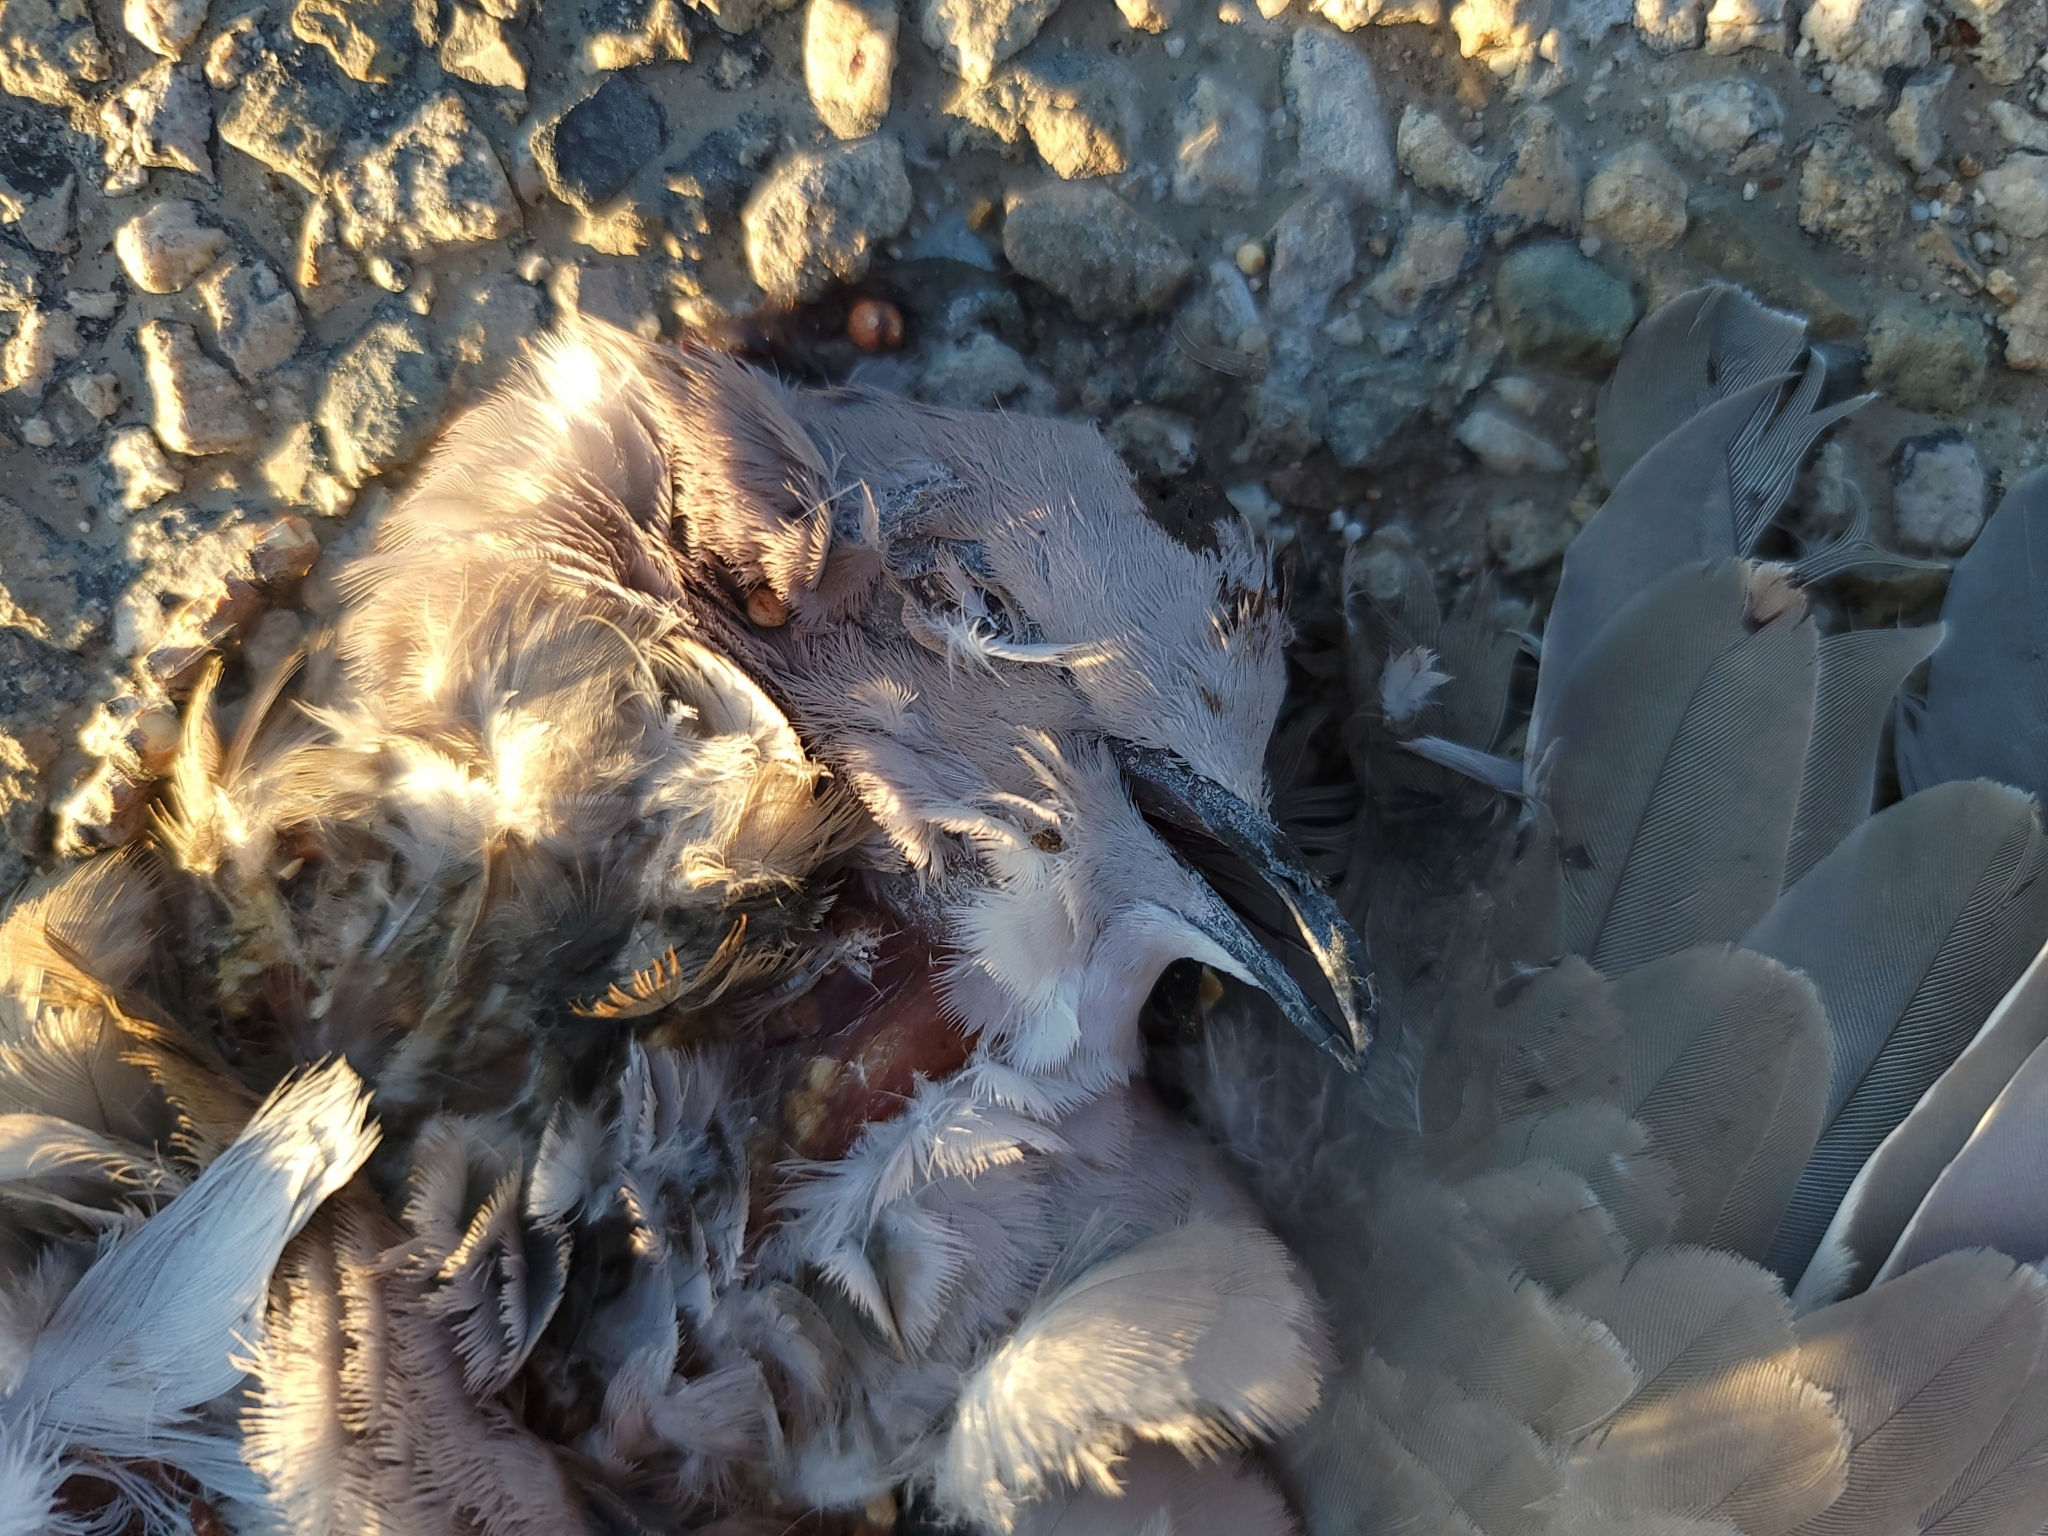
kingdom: Animalia
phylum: Chordata
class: Aves
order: Columbiformes
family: Columbidae
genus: Streptopelia
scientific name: Streptopelia decaocto
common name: Eurasian collared dove
